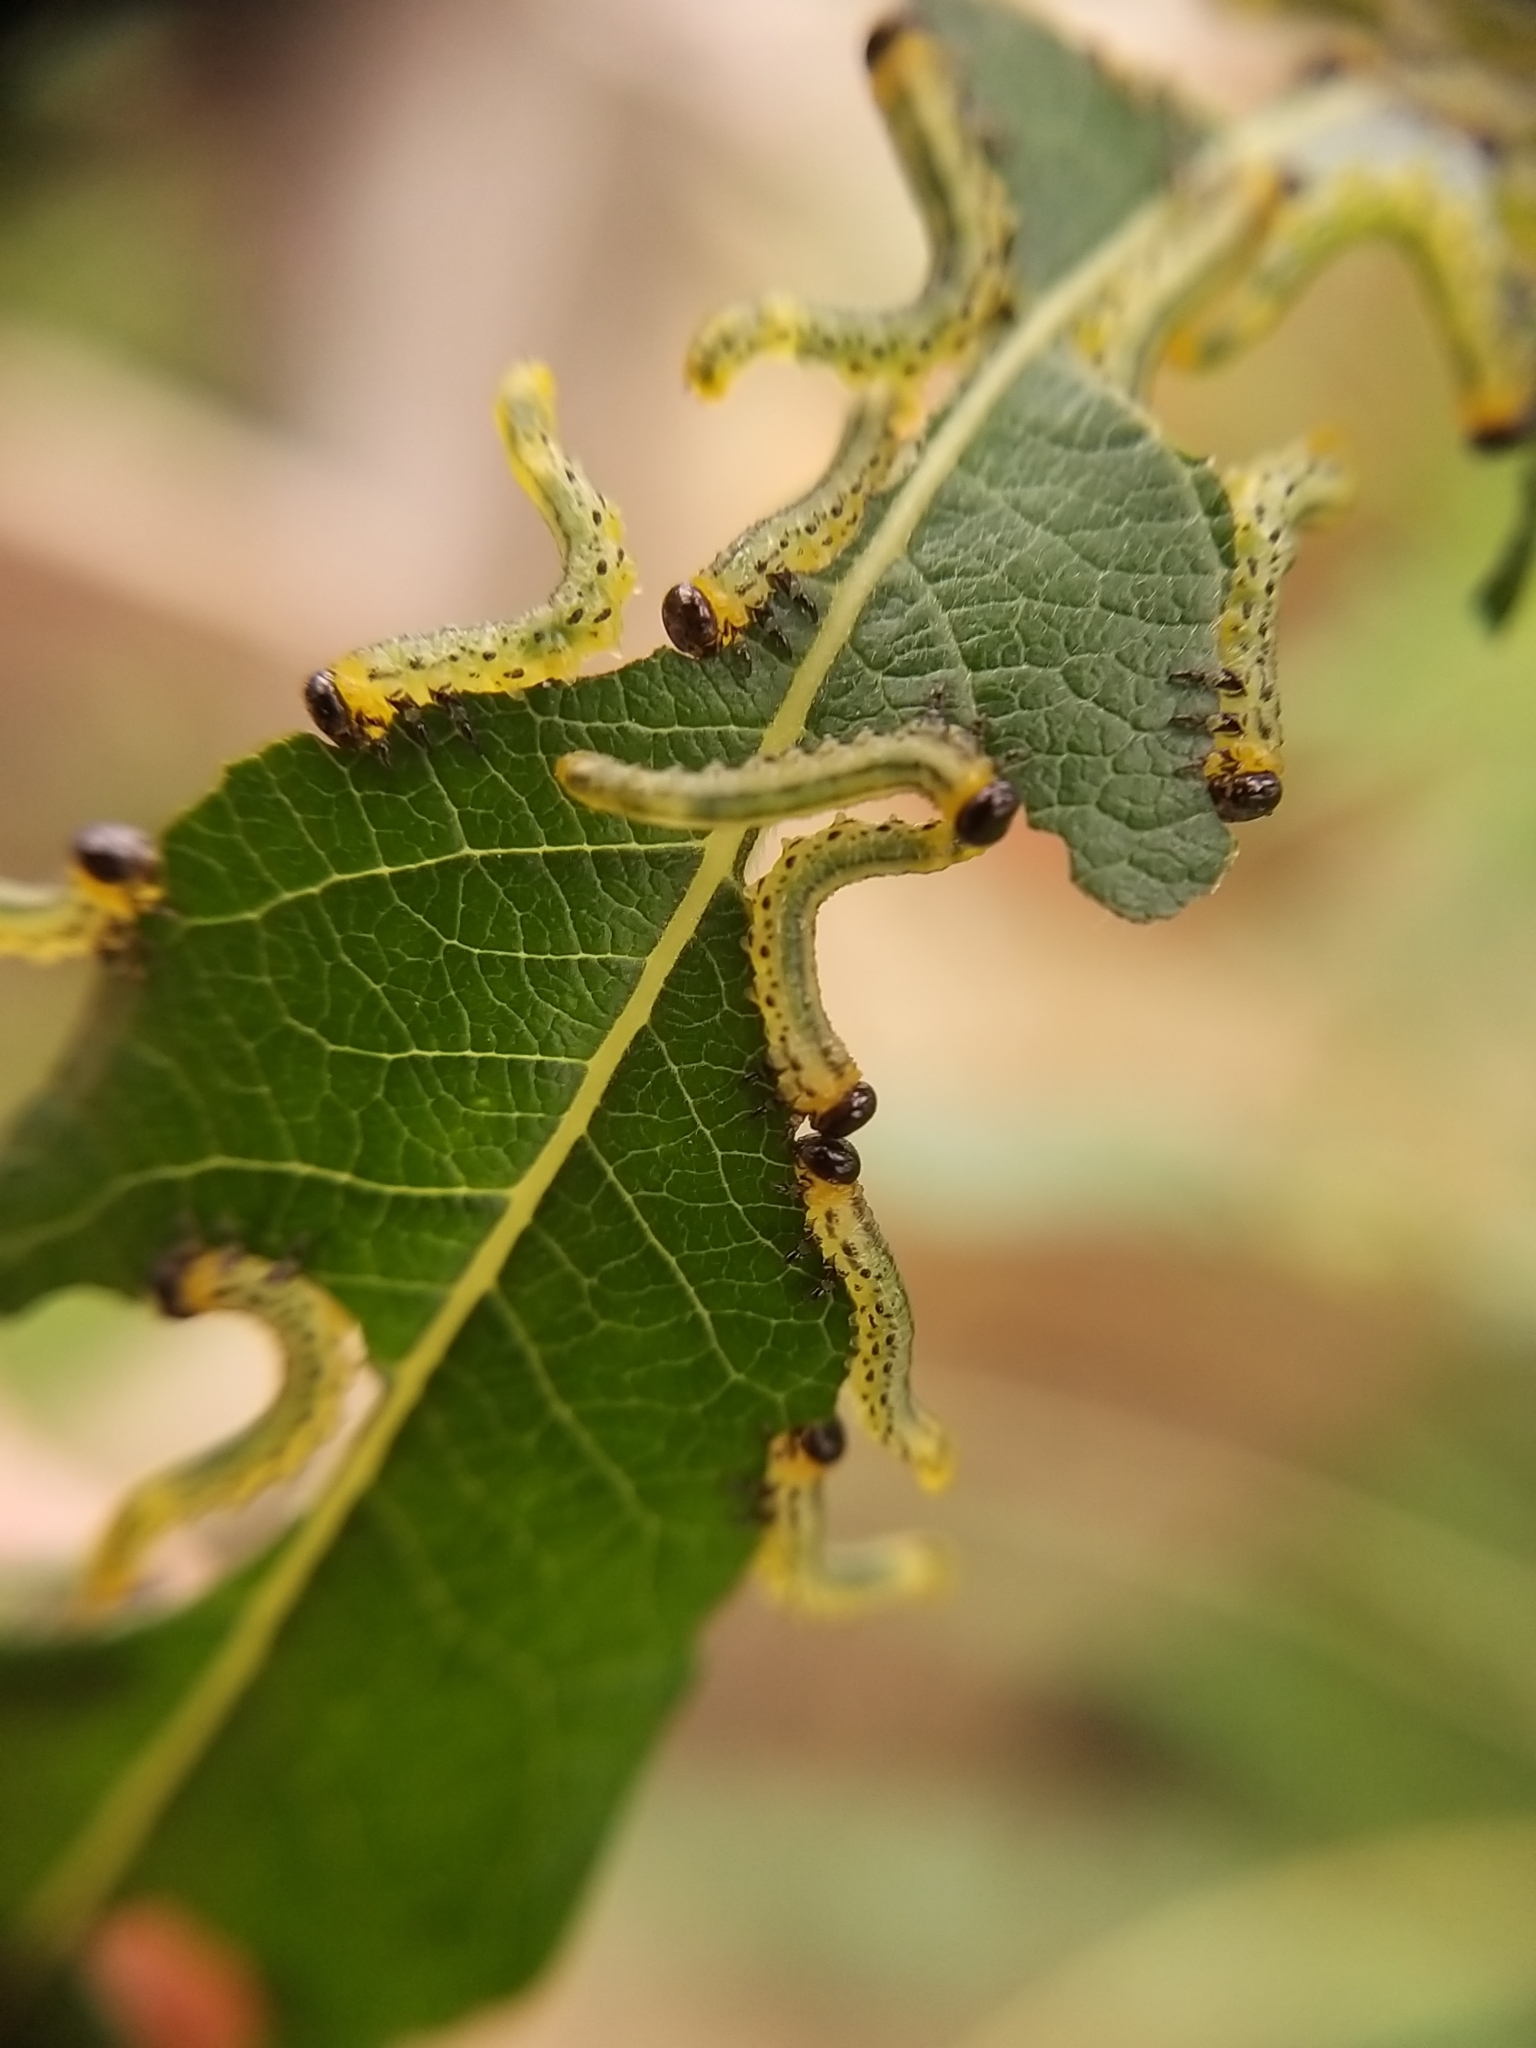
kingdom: Animalia
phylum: Arthropoda
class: Insecta
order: Hymenoptera
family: Tenthredinidae
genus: Nematus
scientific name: Nematus pavidus
